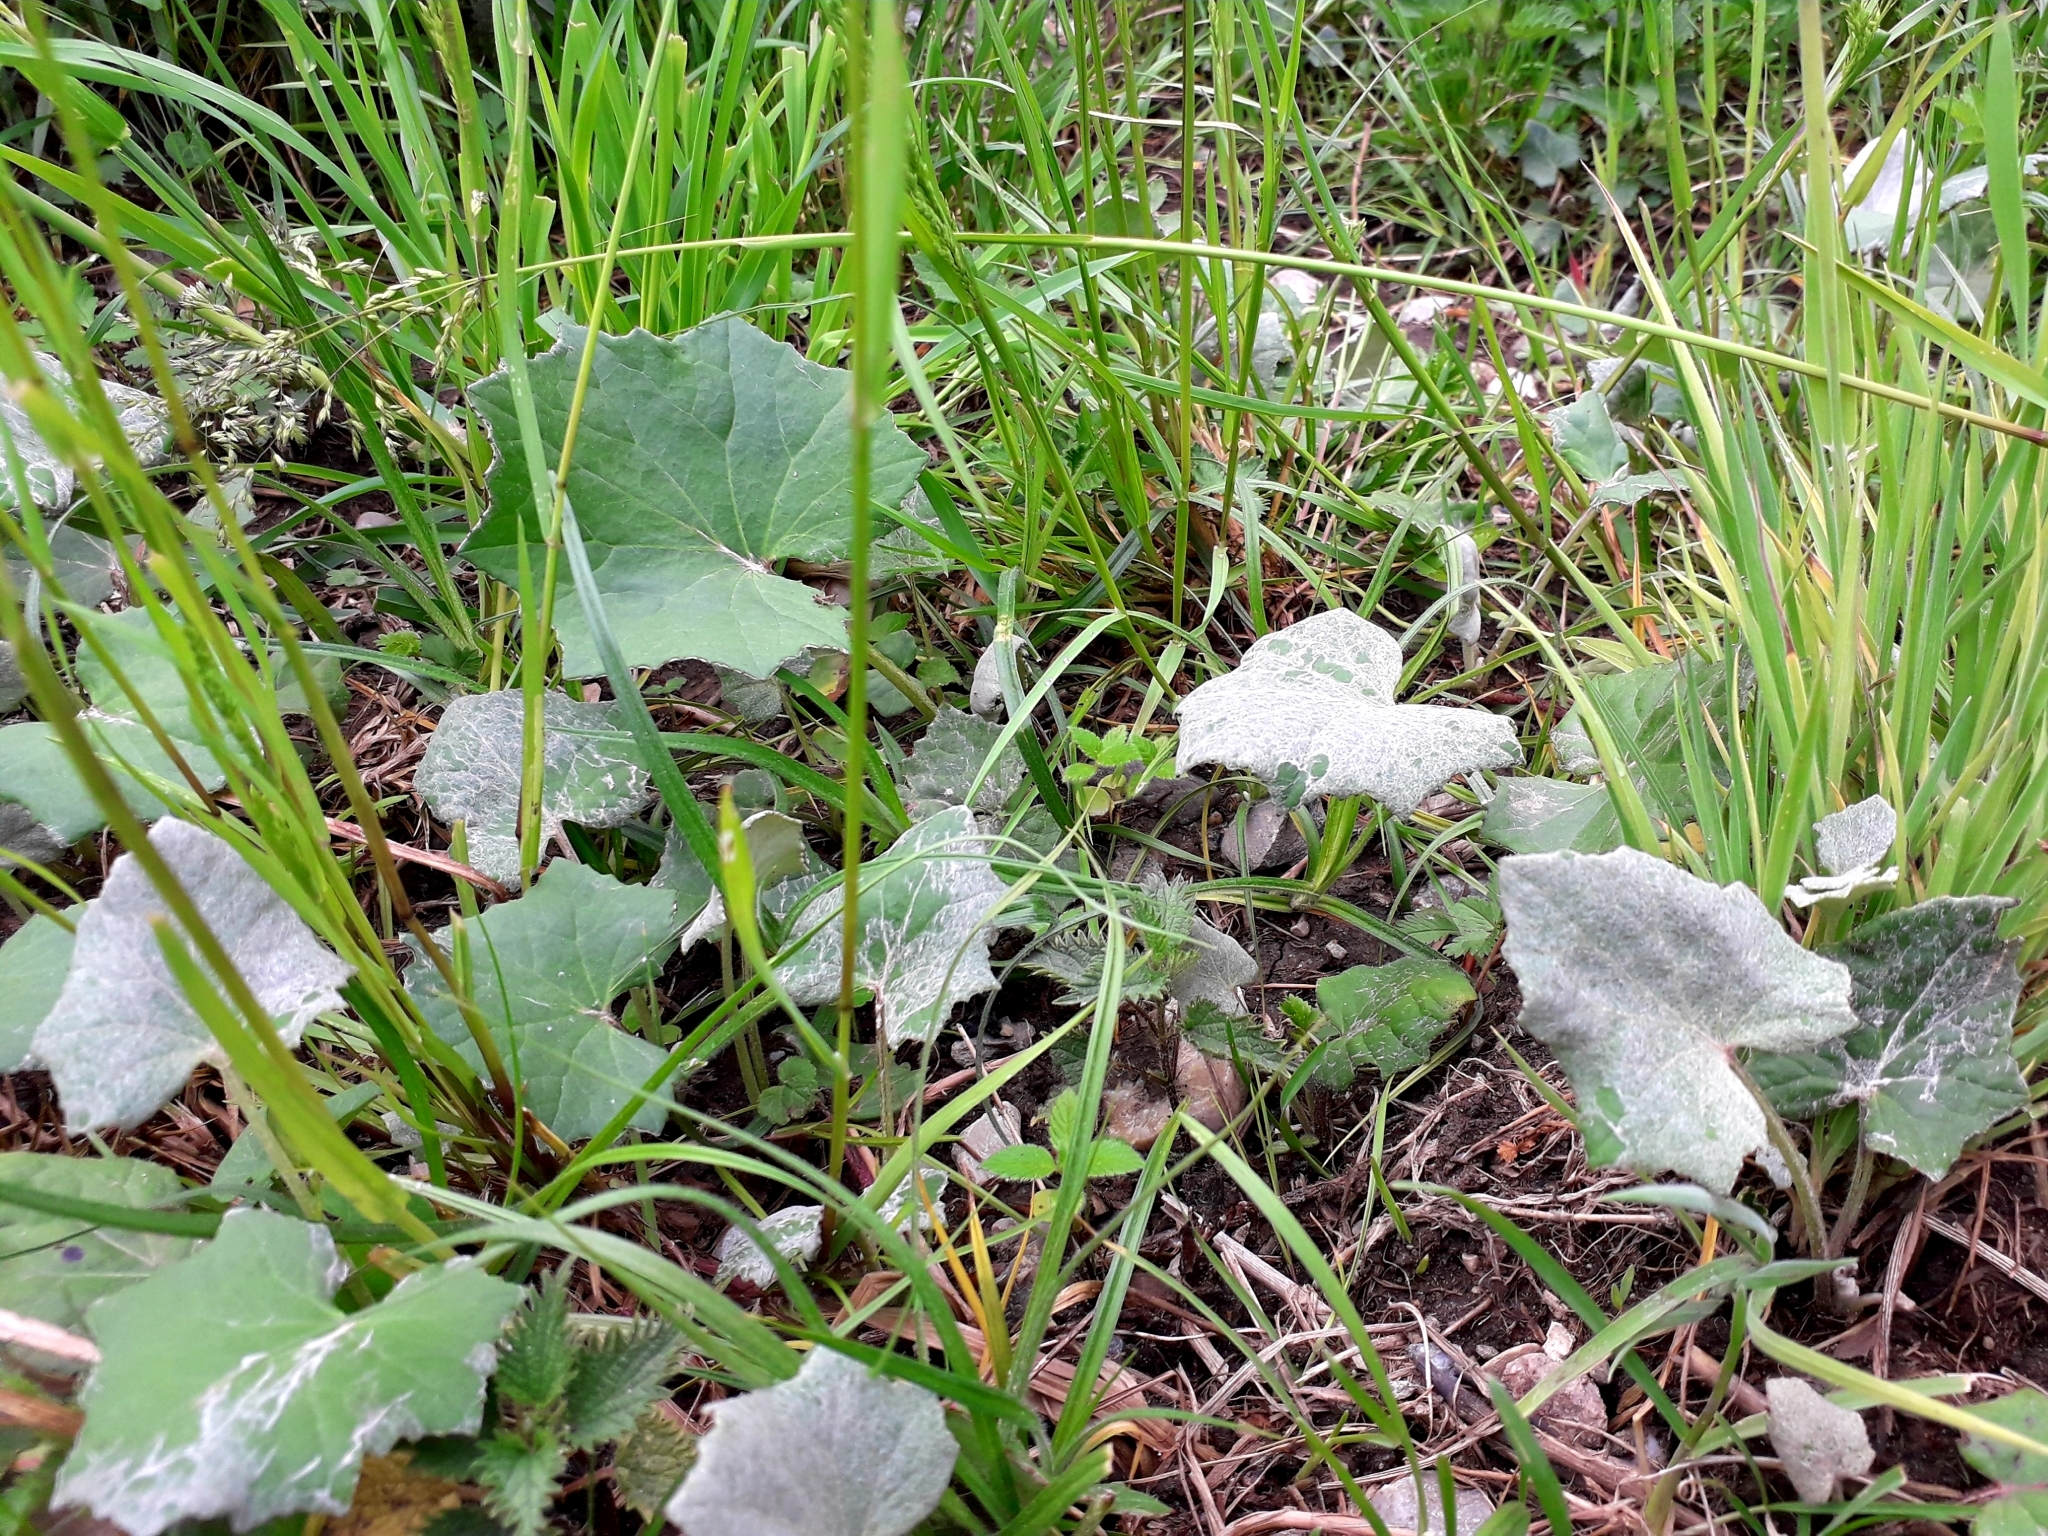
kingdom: Plantae
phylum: Tracheophyta
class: Magnoliopsida
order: Asterales
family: Asteraceae
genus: Tussilago
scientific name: Tussilago farfara
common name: Coltsfoot
